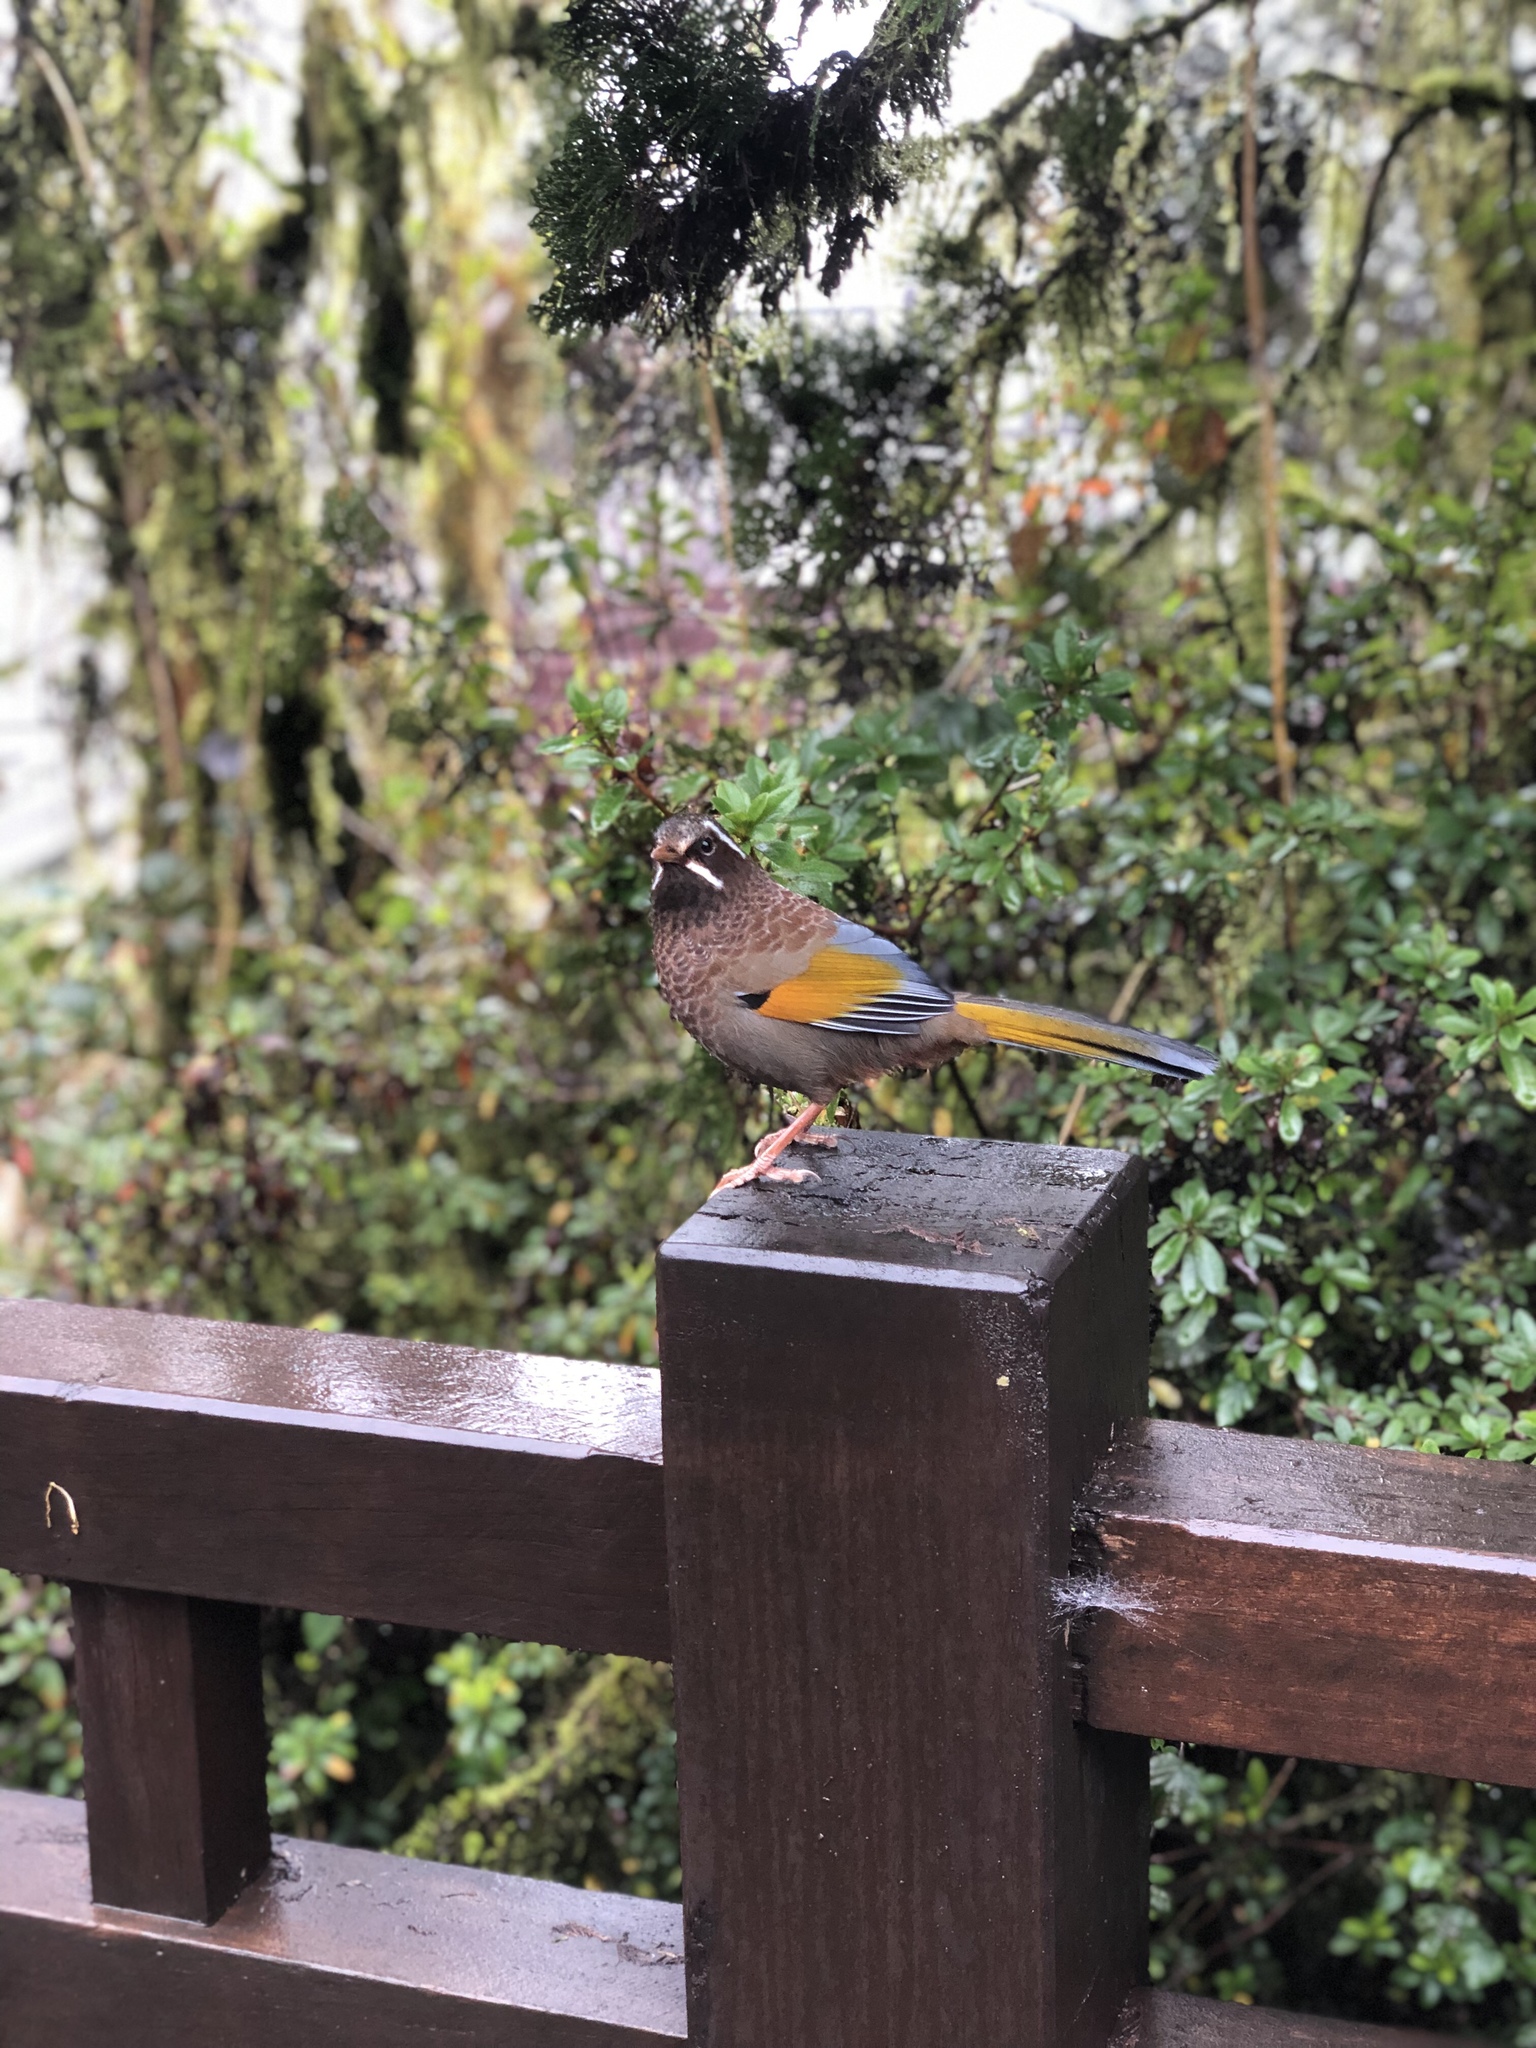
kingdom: Animalia
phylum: Chordata
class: Aves
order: Passeriformes
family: Leiothrichidae
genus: Trochalopteron
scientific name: Trochalopteron morrisonianum
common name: White-whiskered laughingthrush
